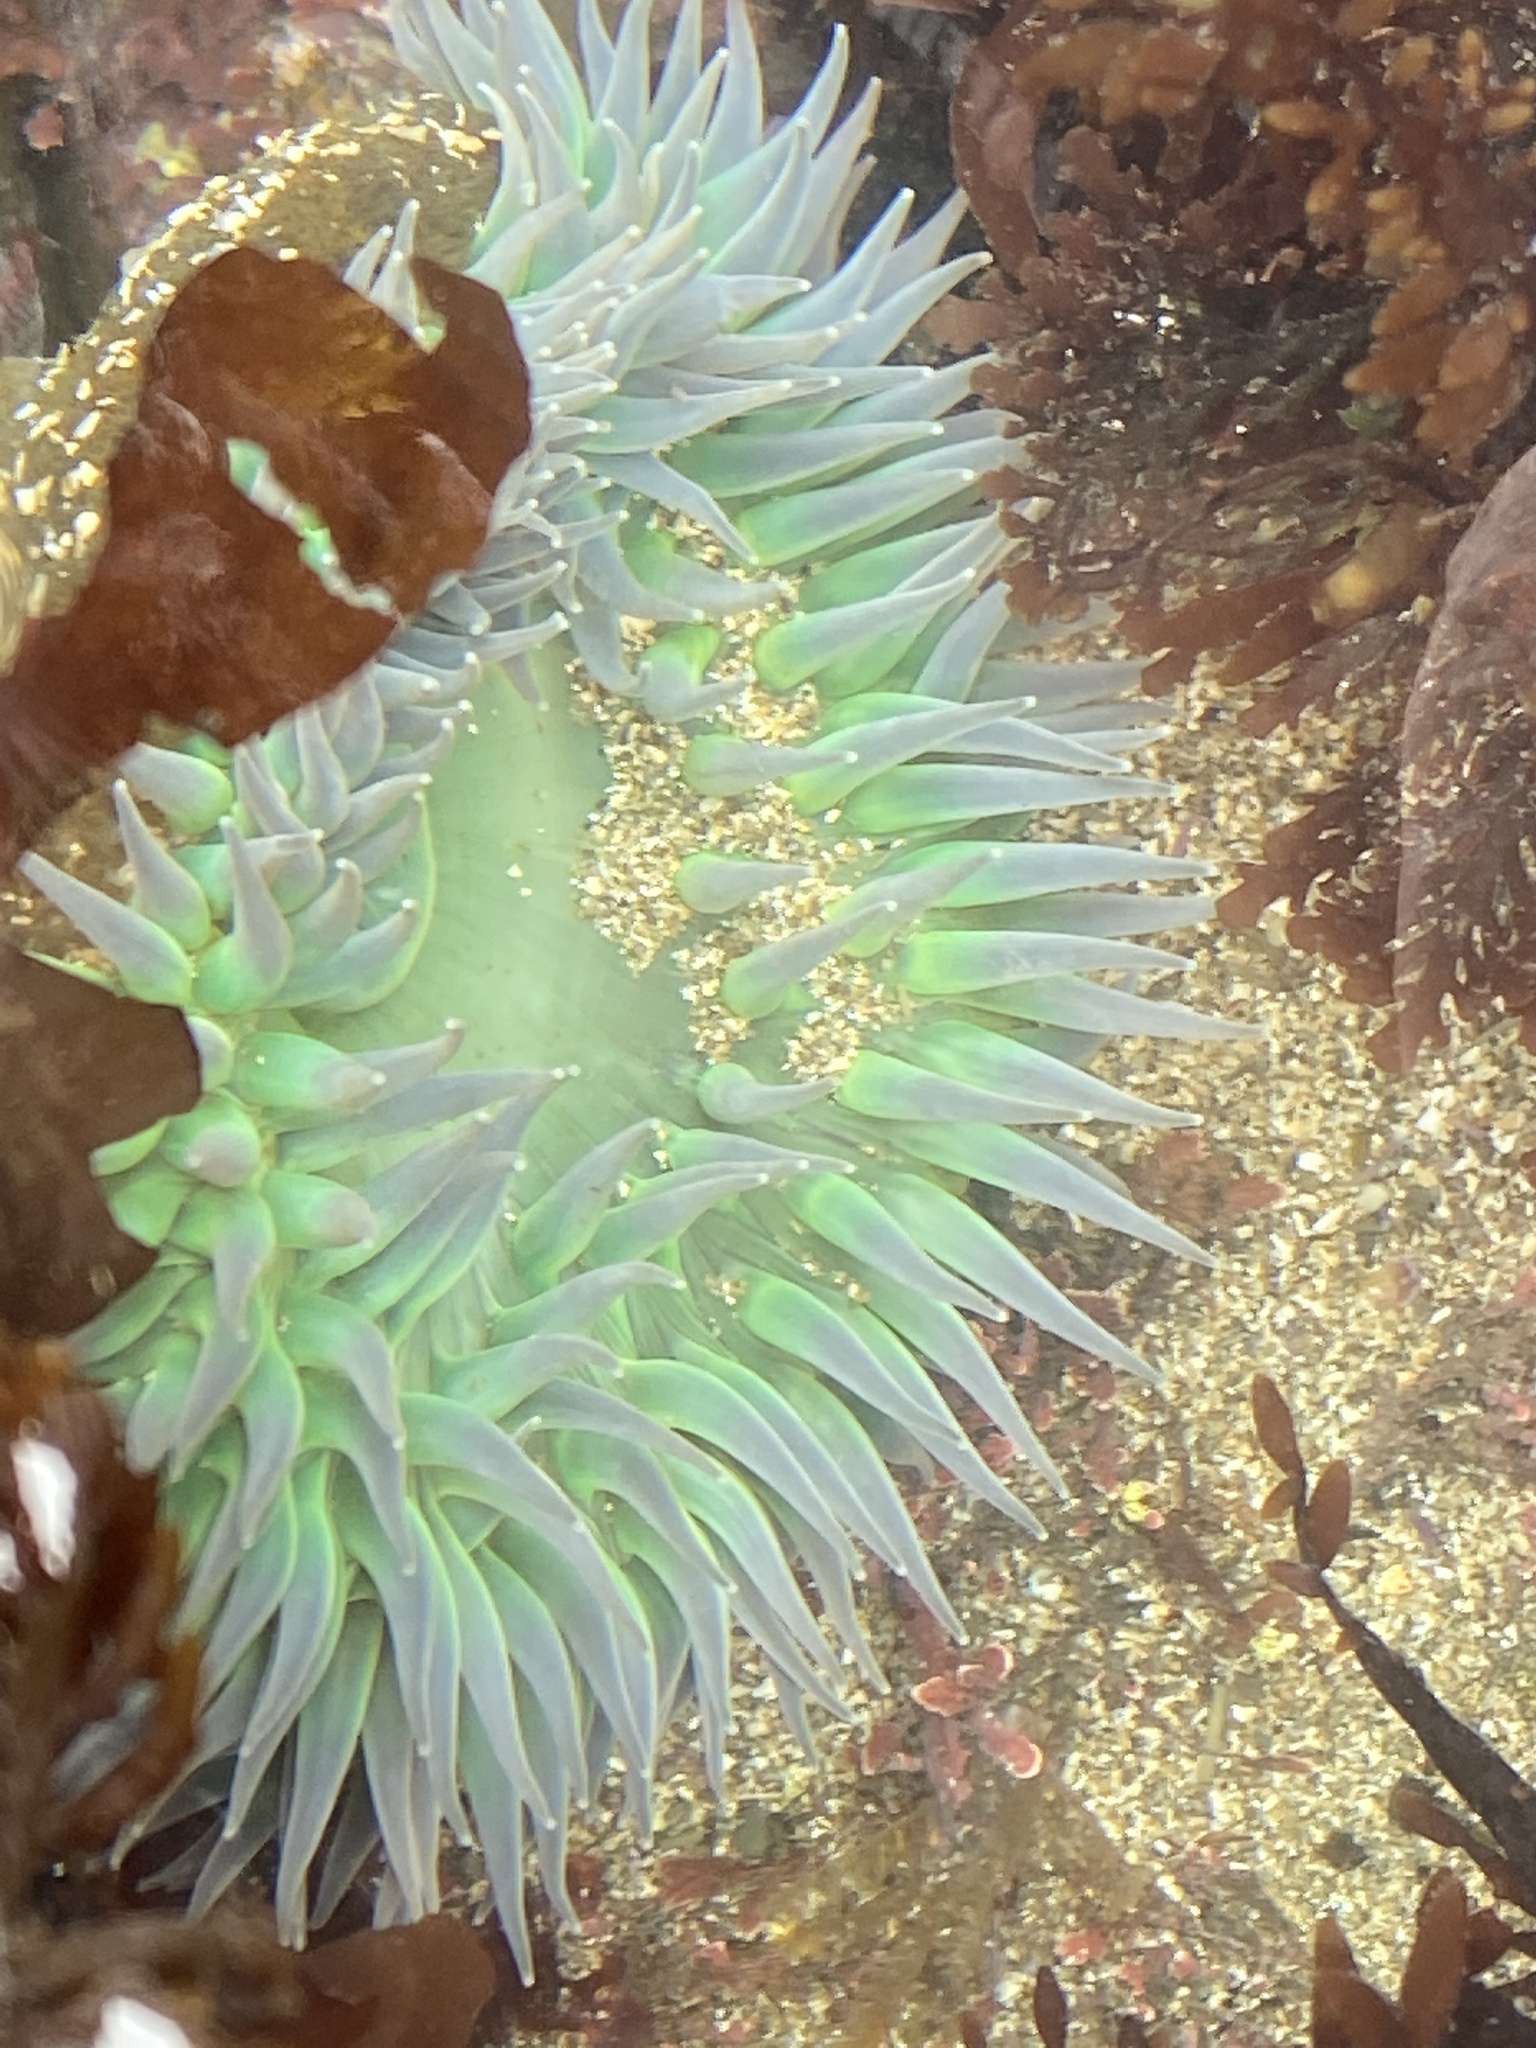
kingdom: Animalia
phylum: Cnidaria
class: Anthozoa
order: Actiniaria
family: Actiniidae
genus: Anthopleura
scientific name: Anthopleura xanthogrammica
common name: Giant green anemone
